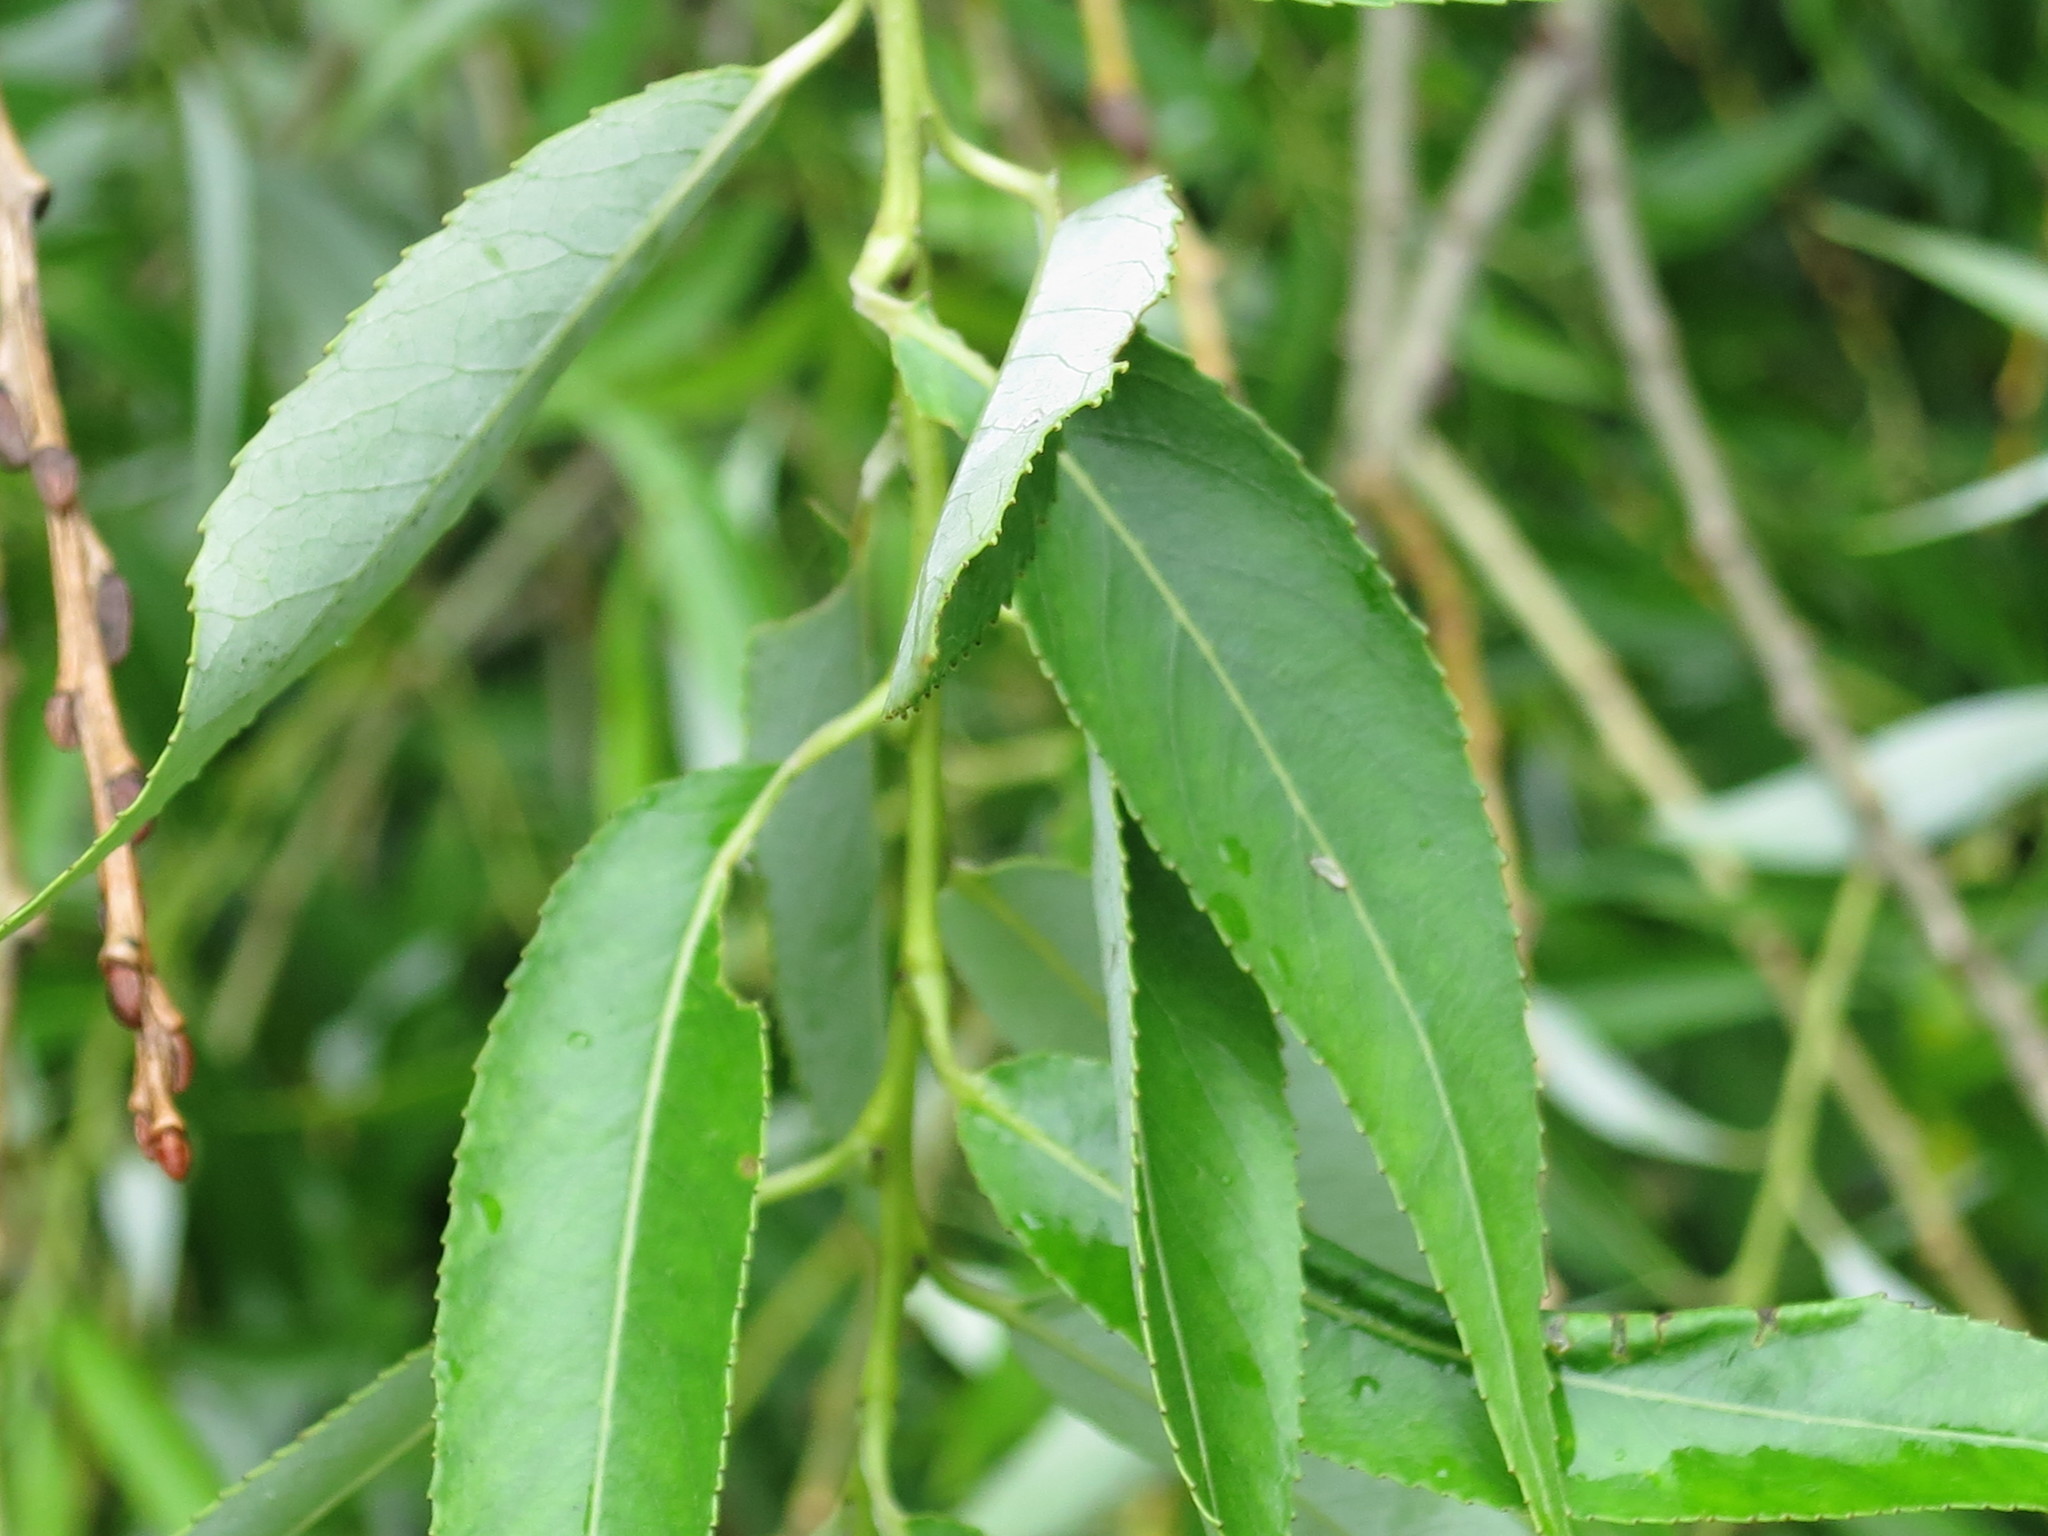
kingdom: Plantae
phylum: Tracheophyta
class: Magnoliopsida
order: Malpighiales
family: Salicaceae
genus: Salix
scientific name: Salix pierotii
